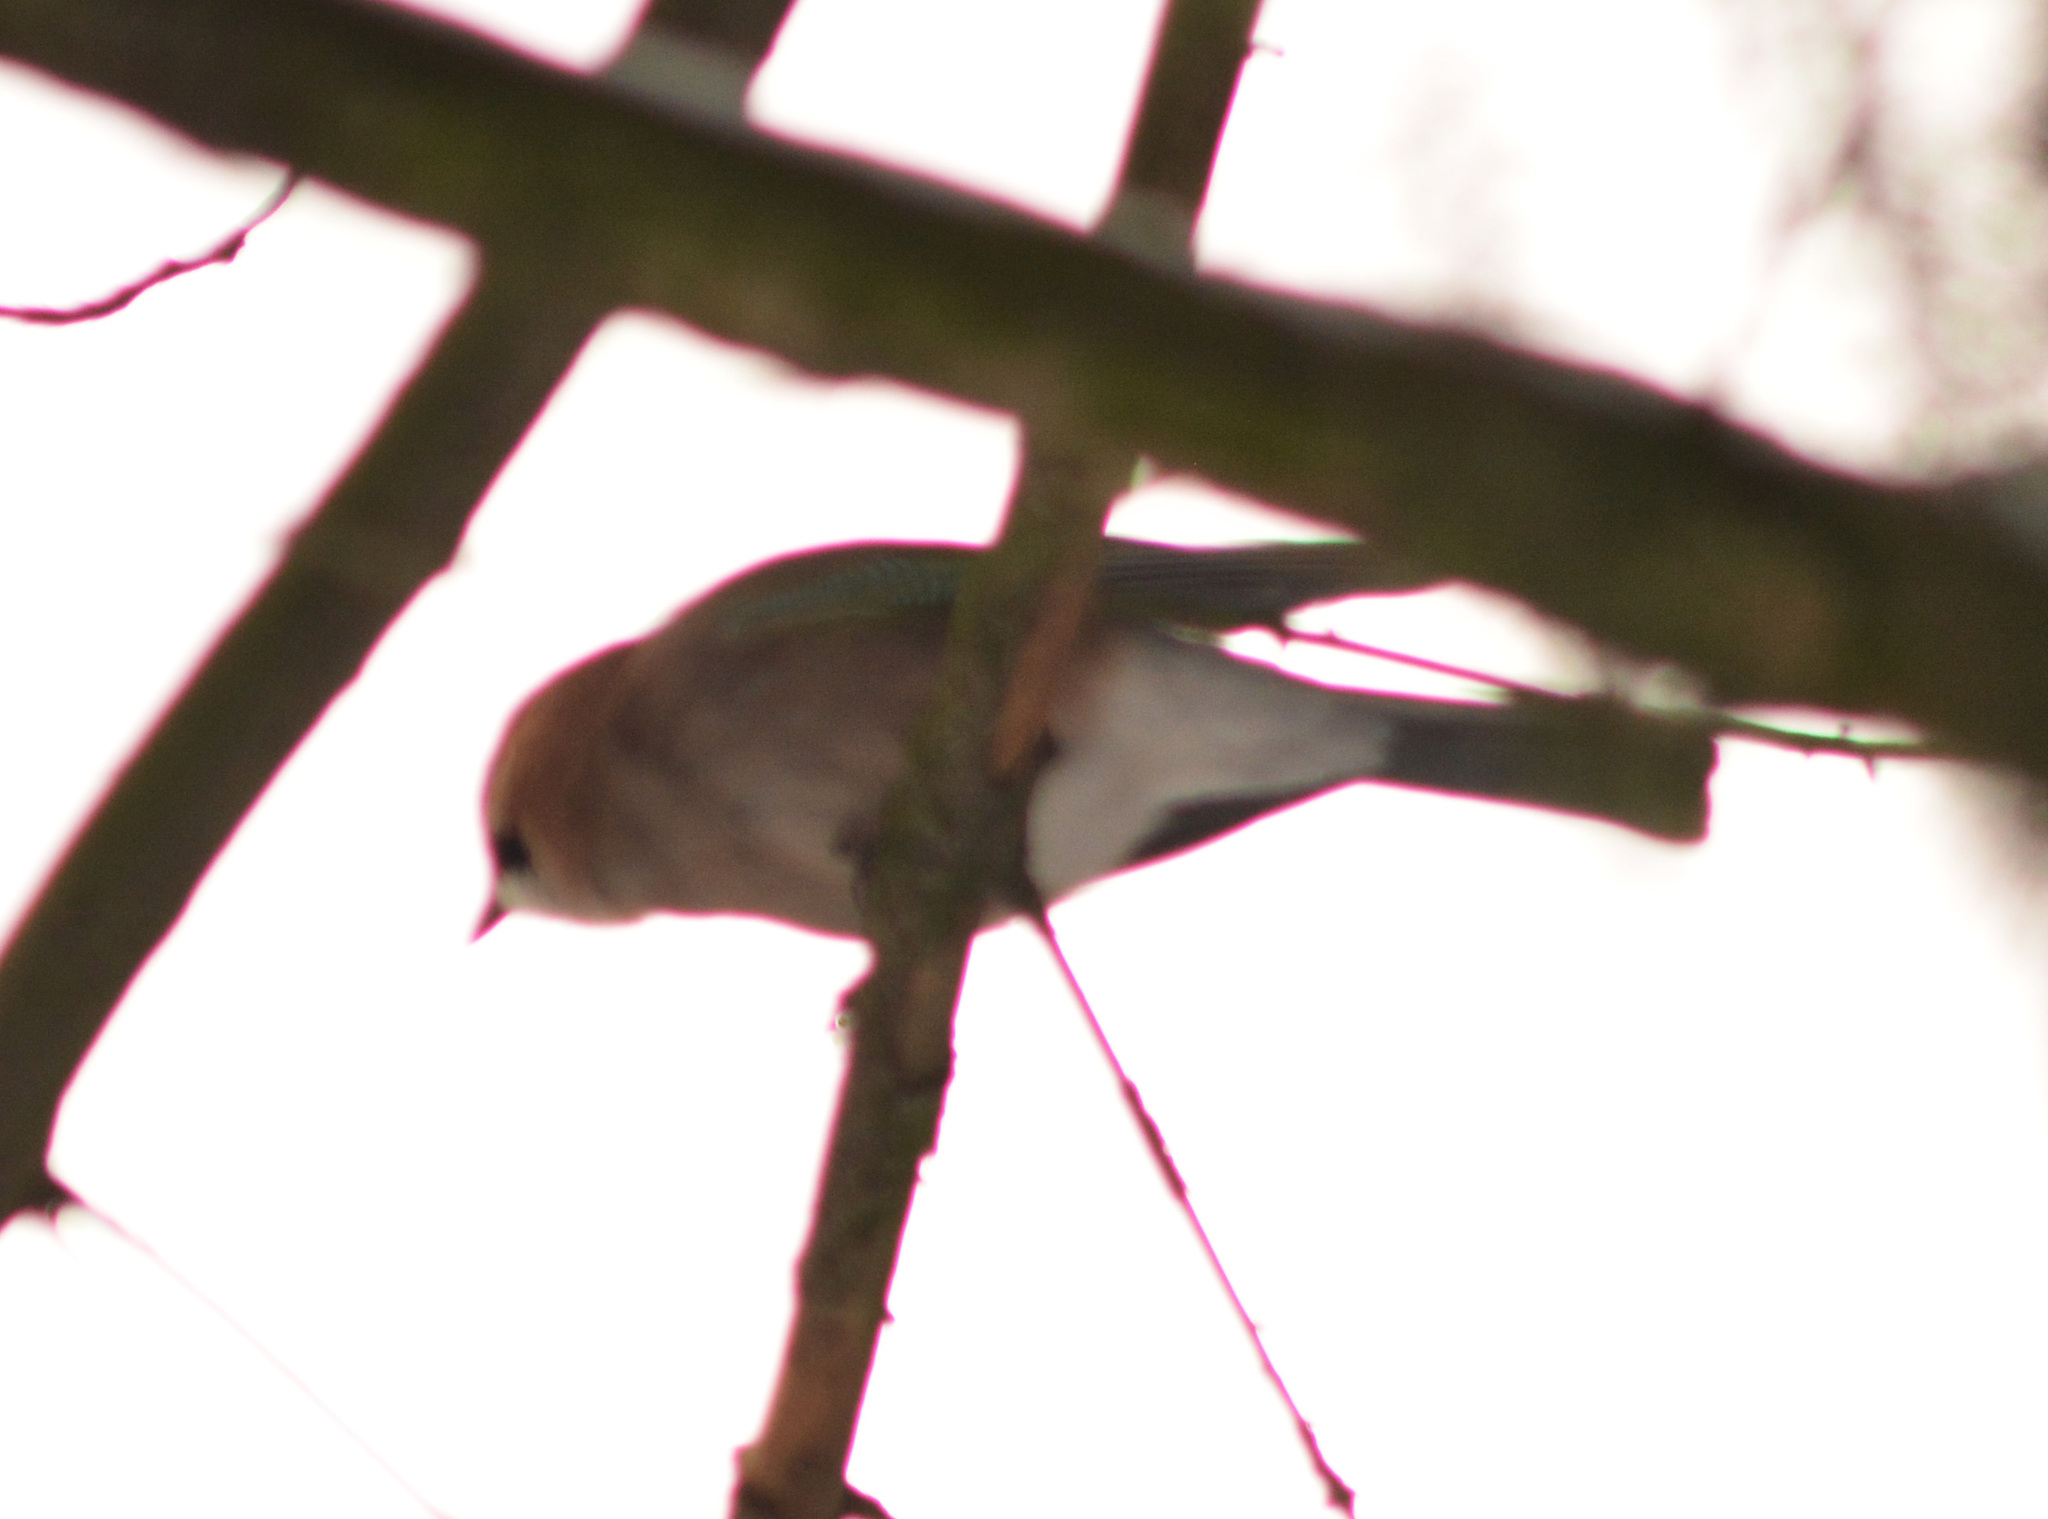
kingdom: Animalia
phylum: Chordata
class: Aves
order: Passeriformes
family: Corvidae
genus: Garrulus
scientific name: Garrulus glandarius
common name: Eurasian jay
